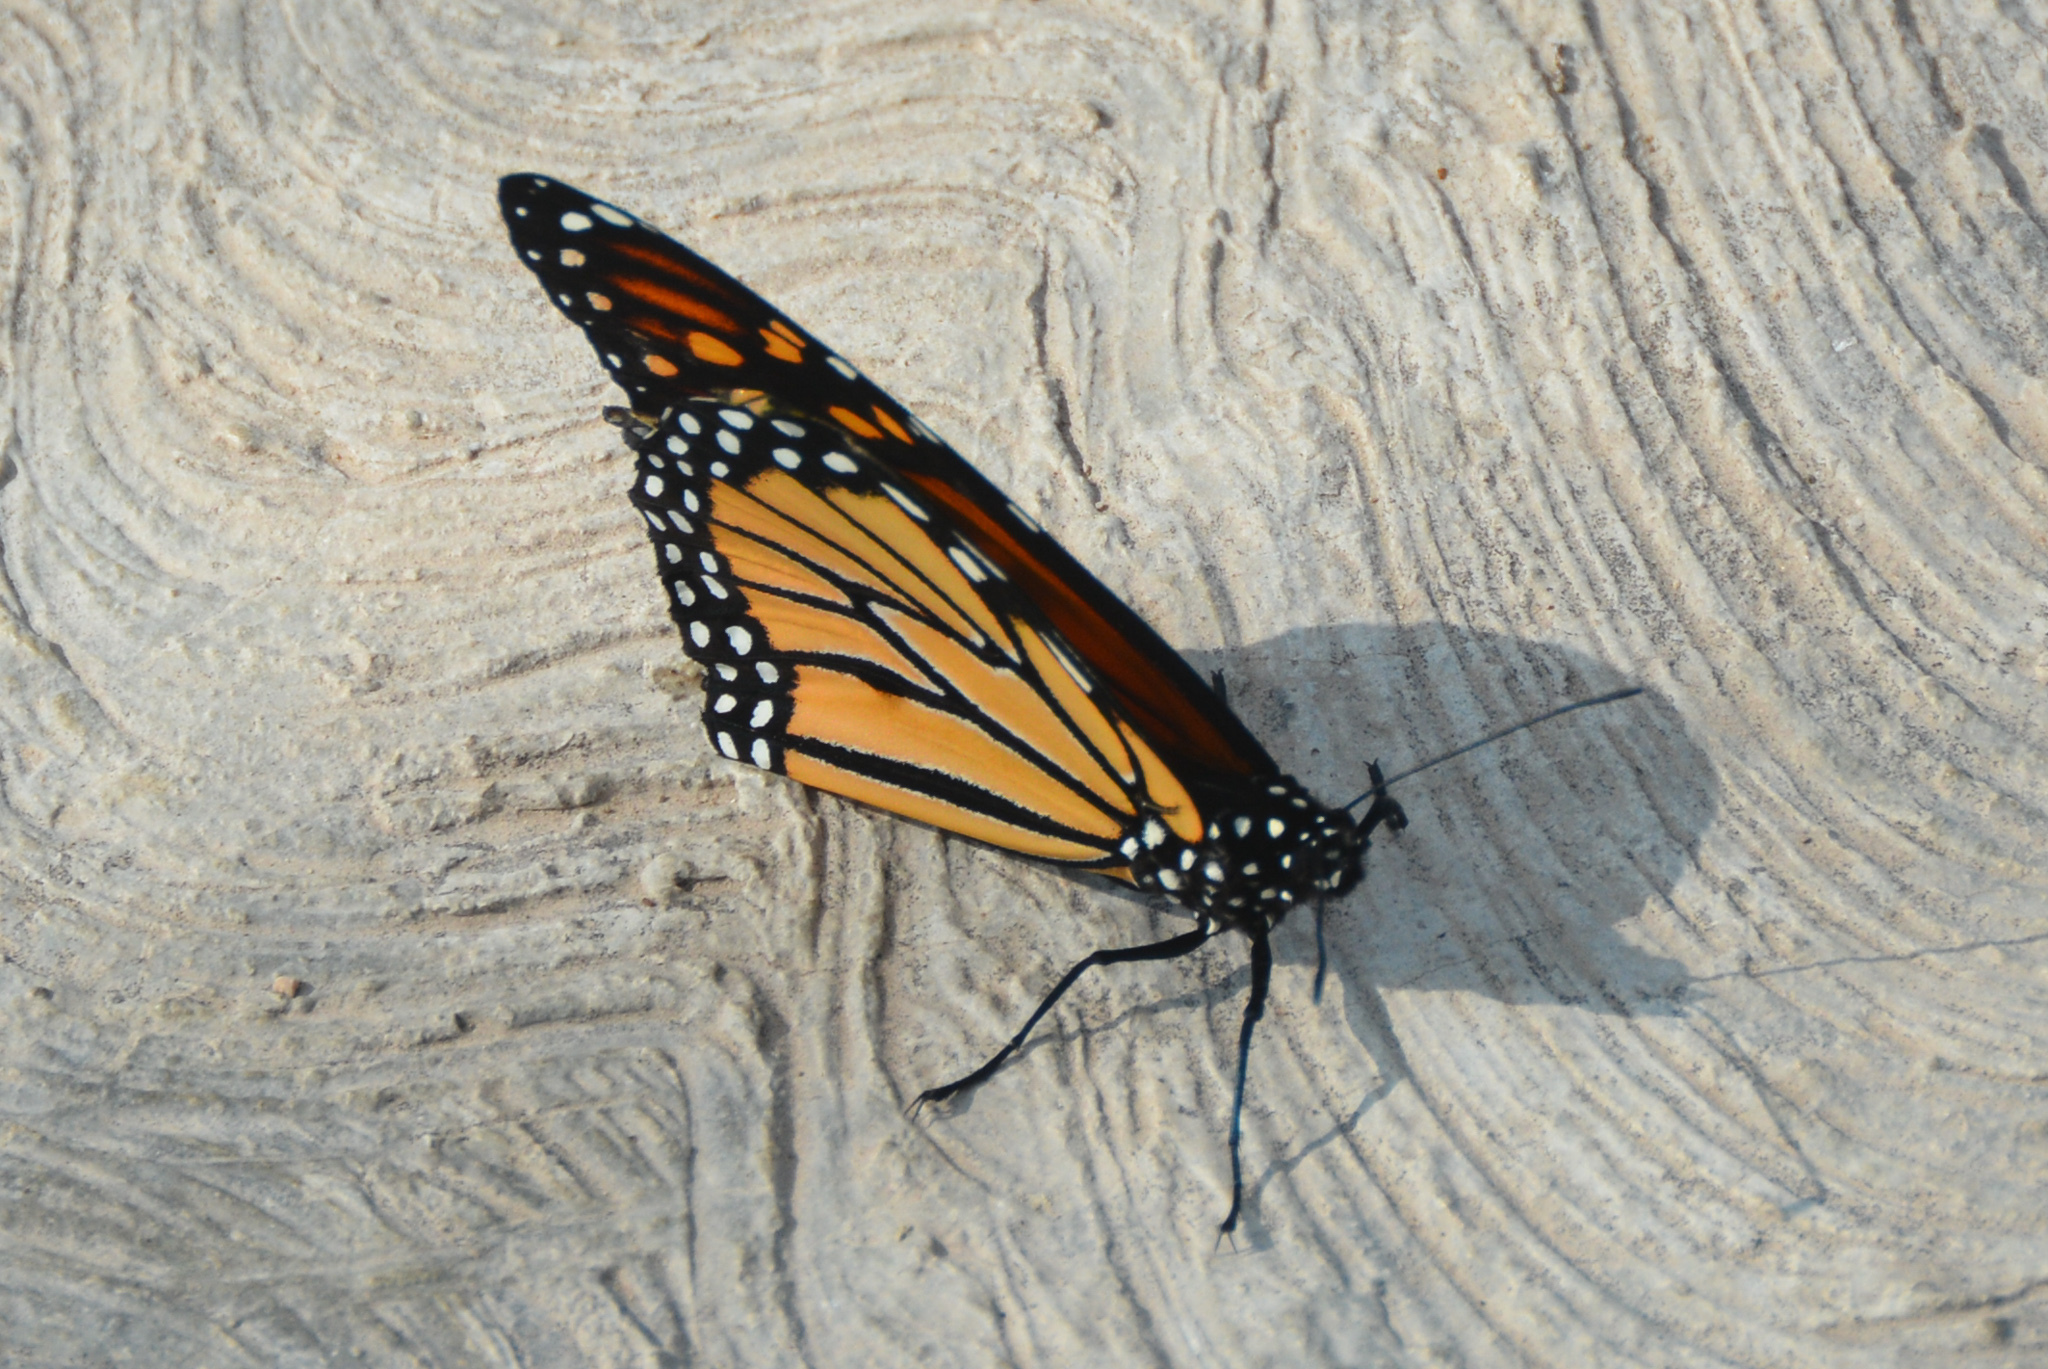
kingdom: Animalia
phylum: Arthropoda
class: Insecta
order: Lepidoptera
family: Nymphalidae
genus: Danaus
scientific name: Danaus plexippus
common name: Monarch
